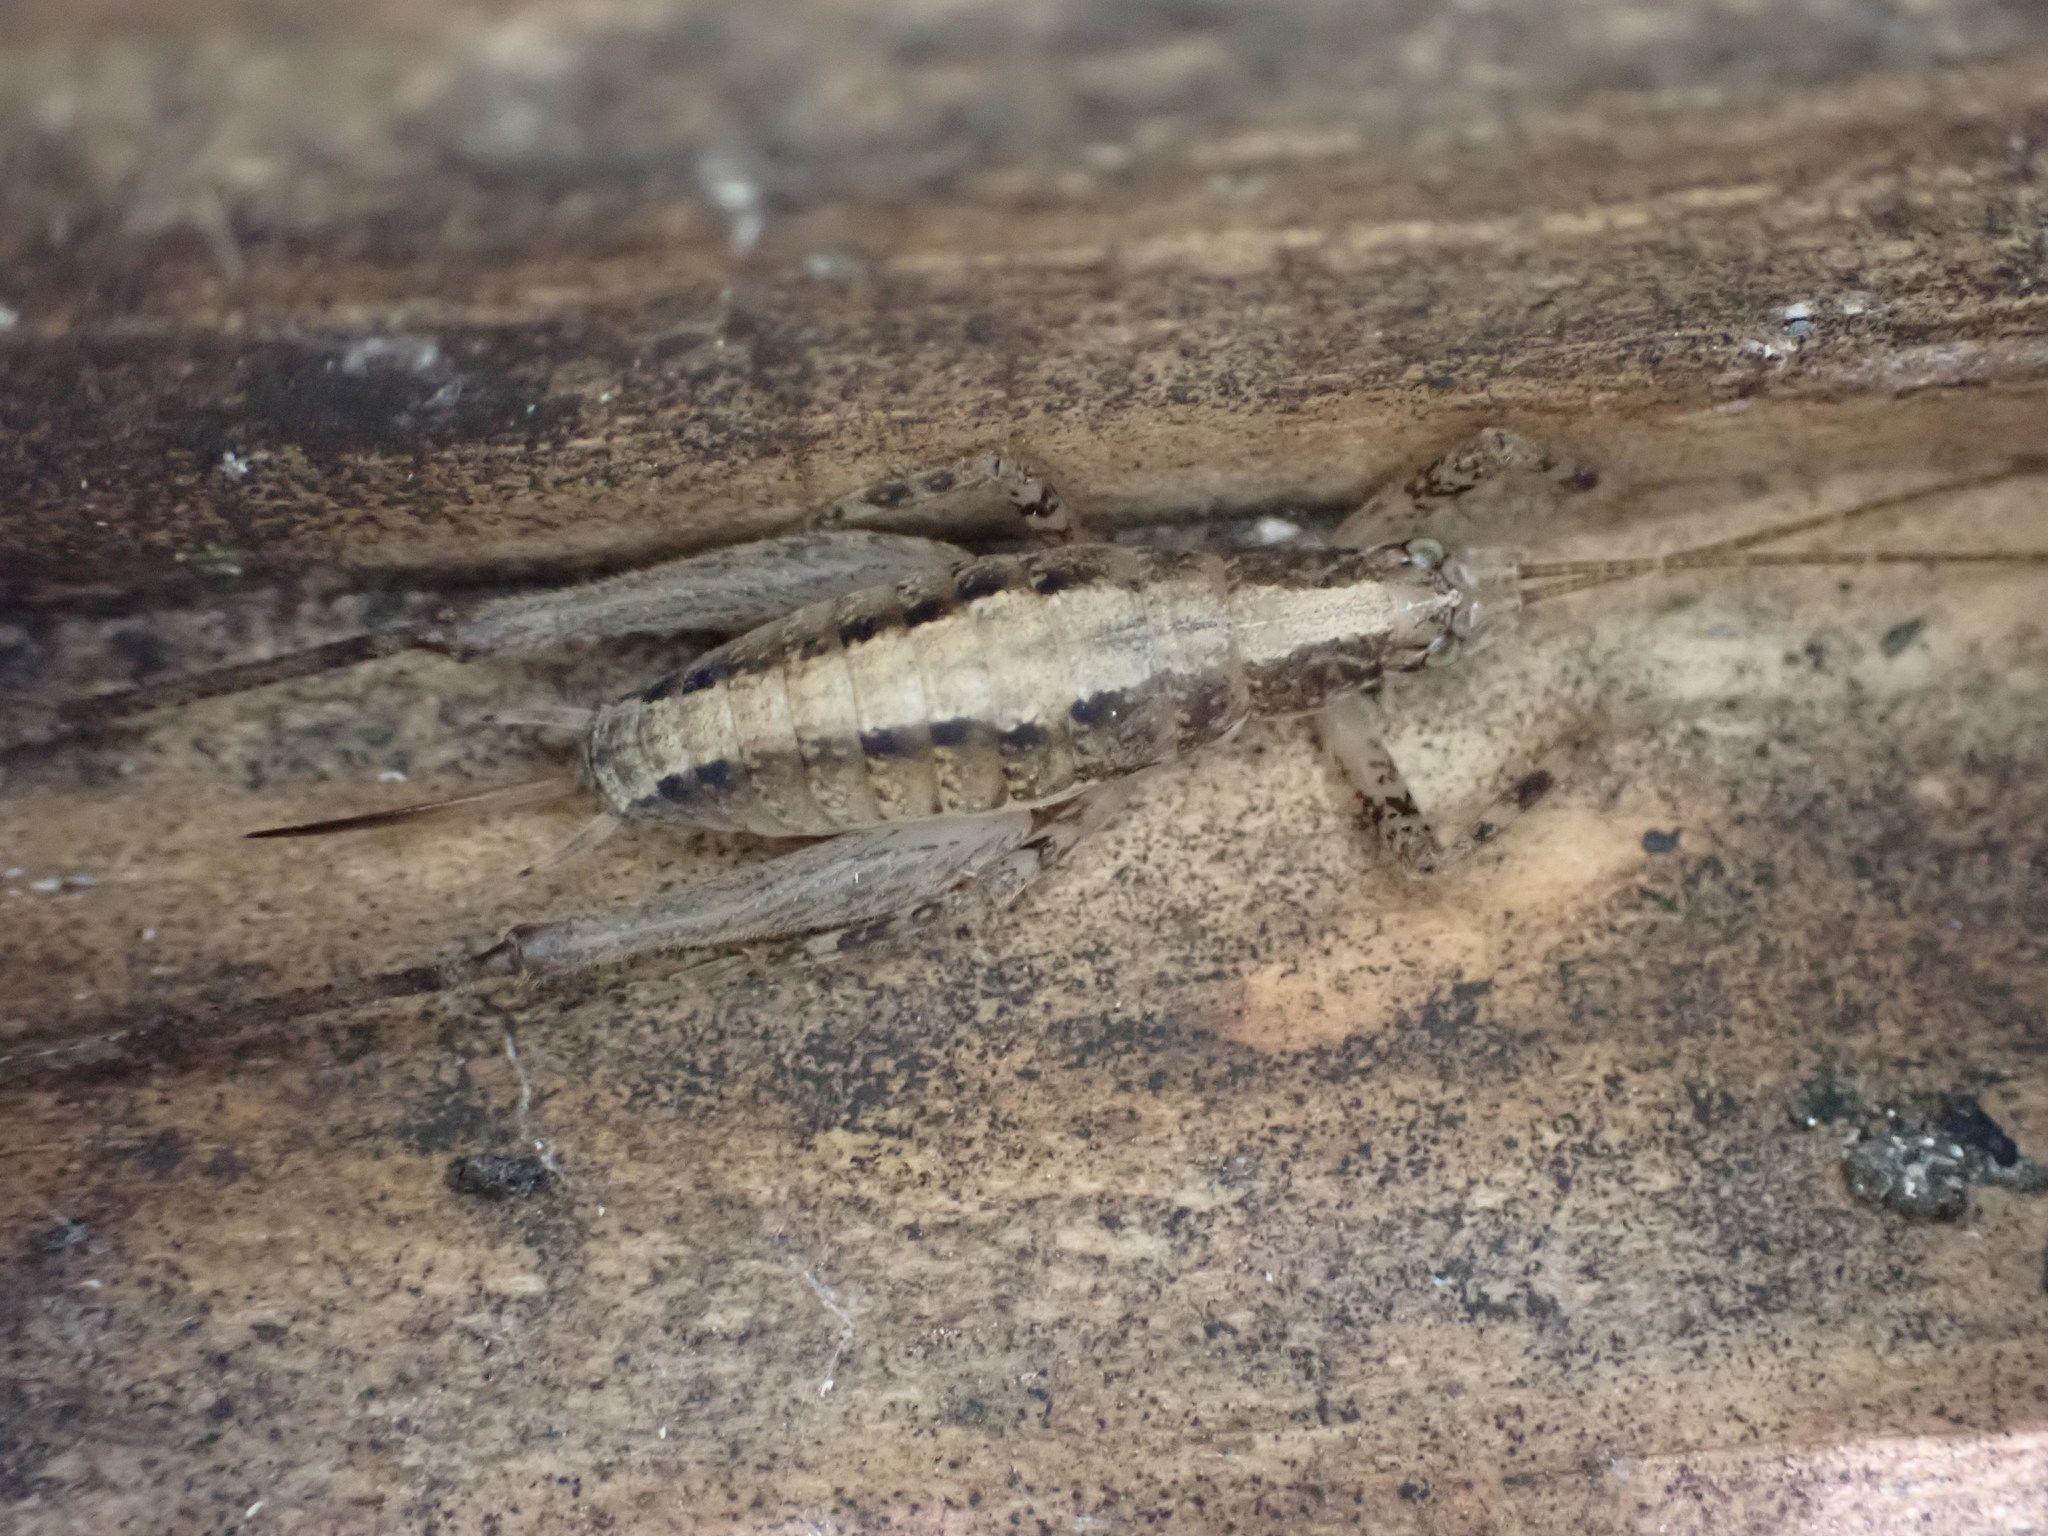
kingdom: Animalia
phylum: Arthropoda
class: Insecta
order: Orthoptera
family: Rhaphidophoridae
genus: Isoplectron
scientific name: Isoplectron armatum
